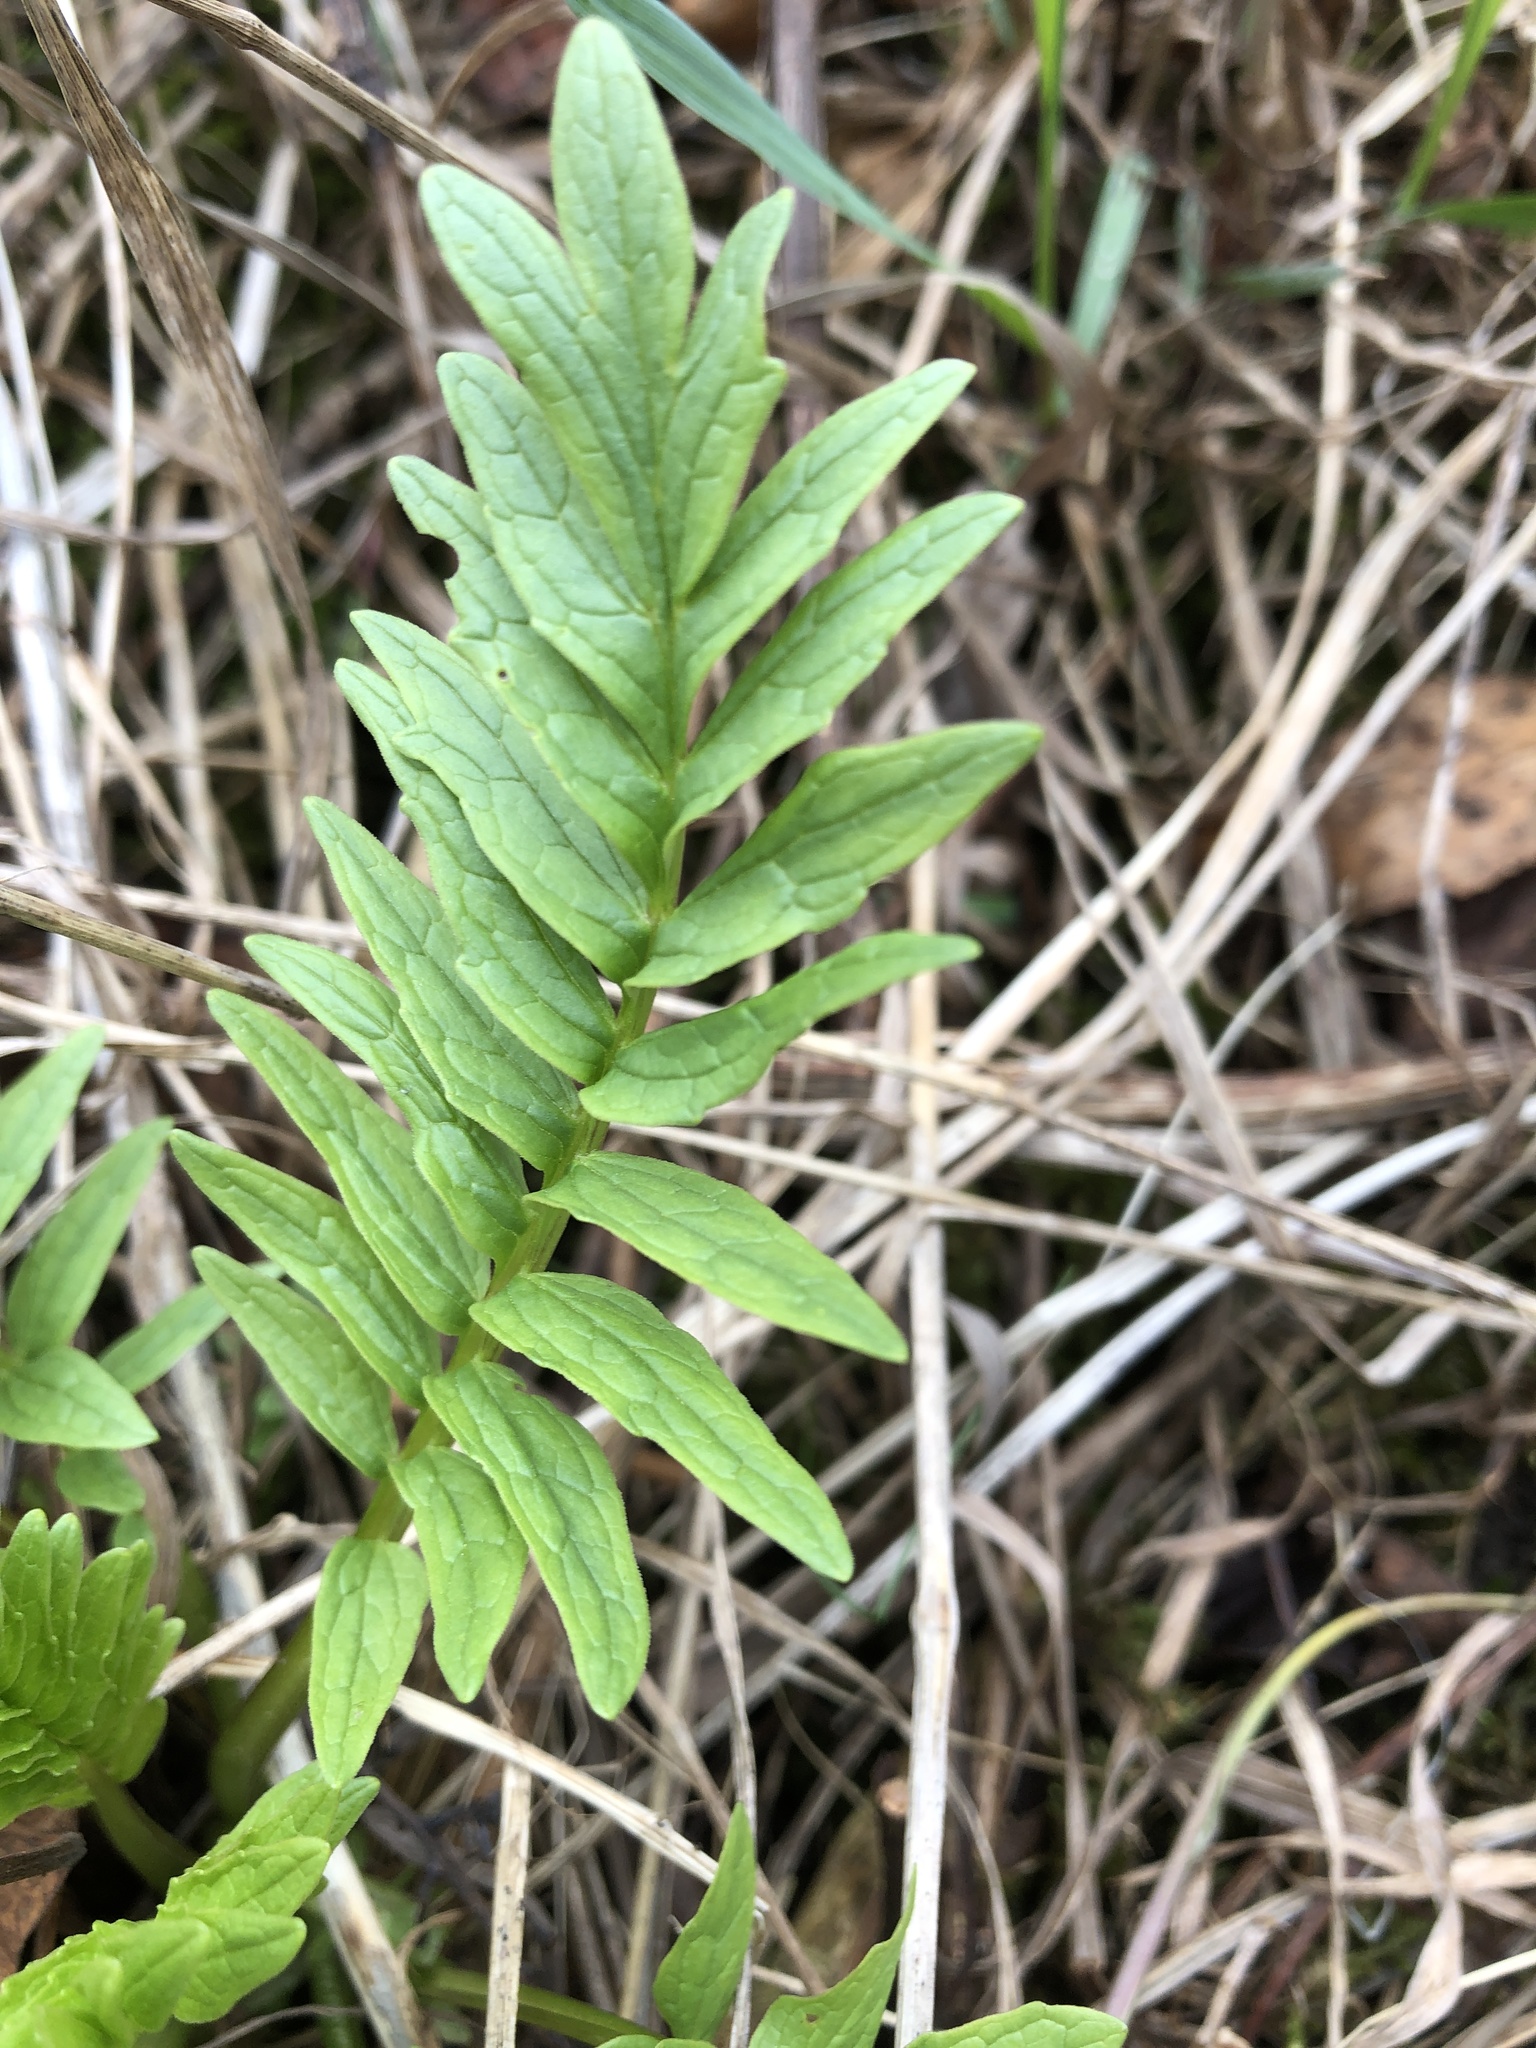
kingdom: Plantae
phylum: Tracheophyta
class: Magnoliopsida
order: Dipsacales
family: Caprifoliaceae
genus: Valeriana
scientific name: Valeriana officinalis
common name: Common valerian
